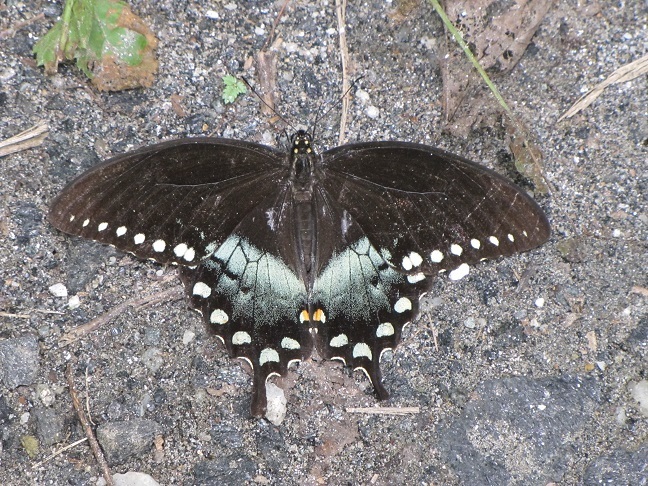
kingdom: Animalia
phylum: Arthropoda
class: Insecta
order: Lepidoptera
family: Papilionidae
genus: Papilio
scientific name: Papilio troilus
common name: Spicebush swallowtail
